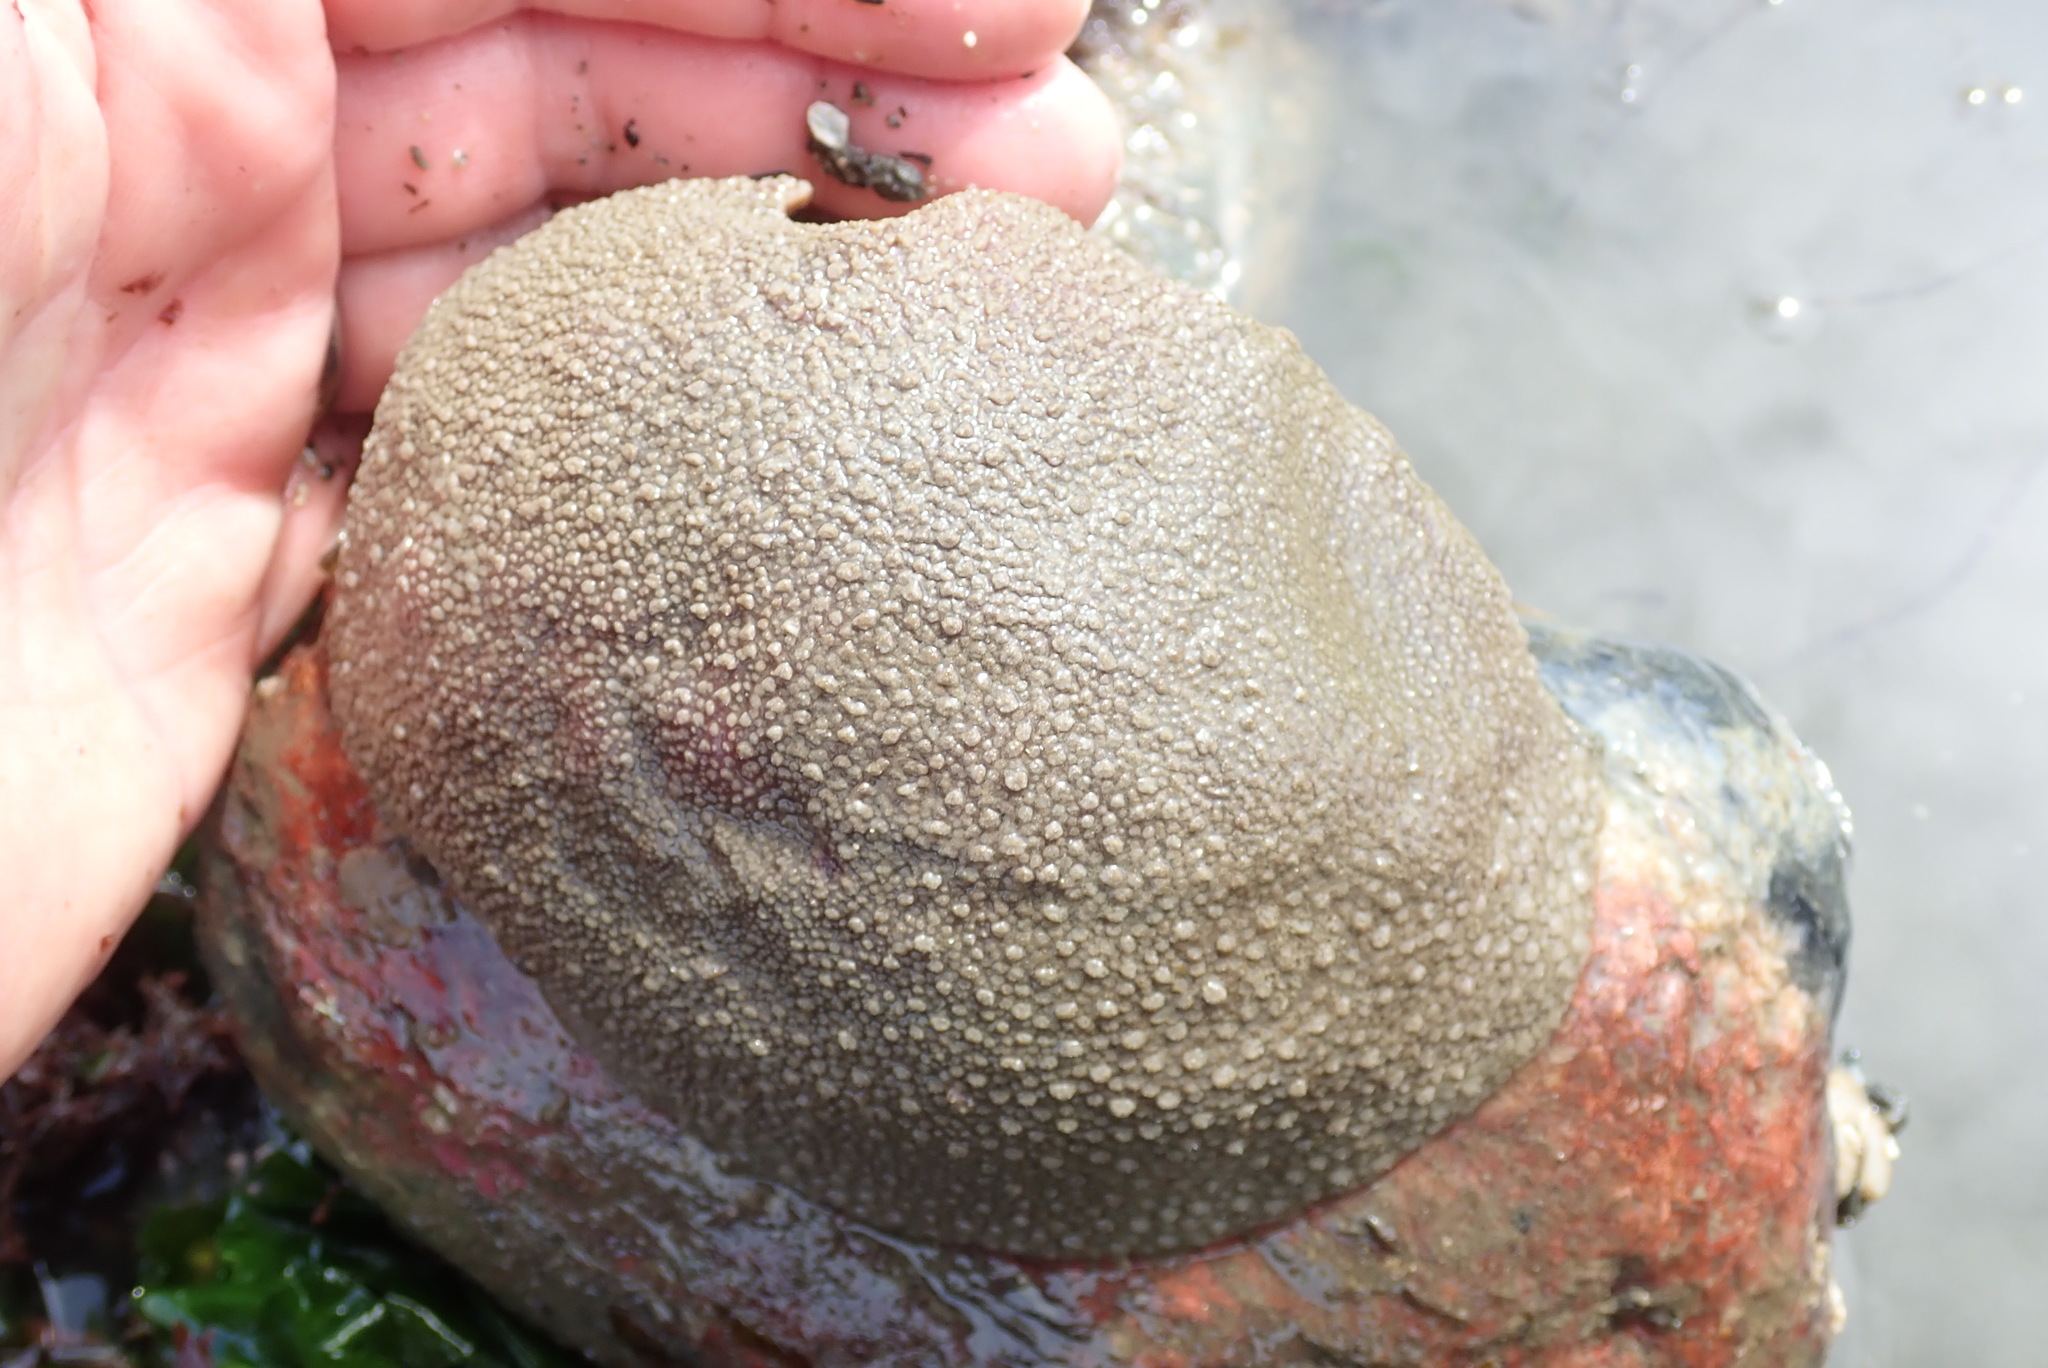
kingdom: Animalia
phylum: Mollusca
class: Polyplacophora
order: Chitonida
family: Acanthochitonidae
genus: Cryptochiton
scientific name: Cryptochiton stelleri
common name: Giant pacific chiton
